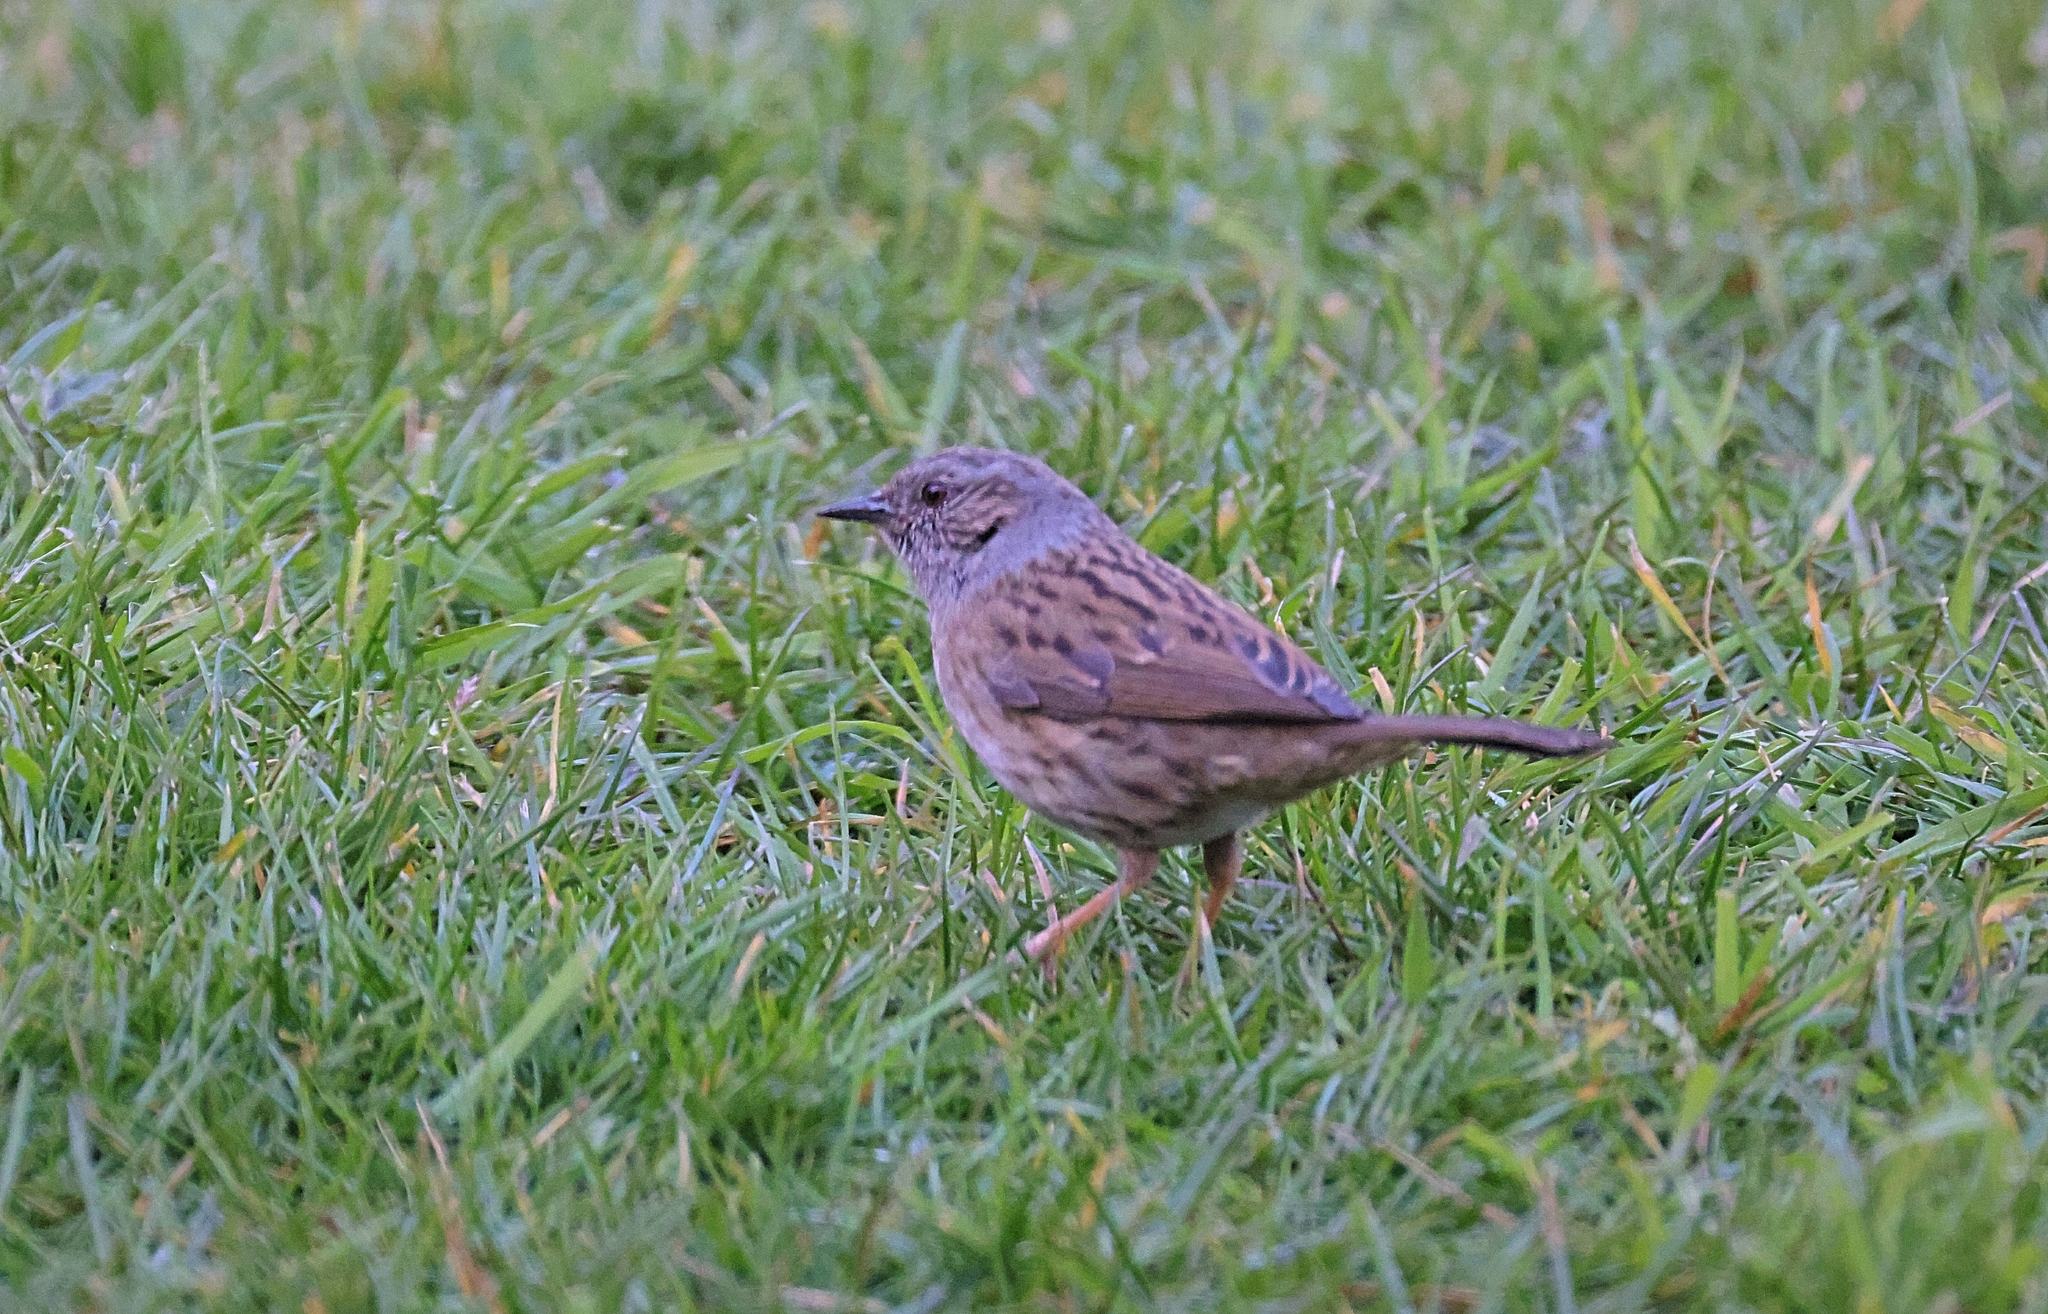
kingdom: Animalia
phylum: Chordata
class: Aves
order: Passeriformes
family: Prunellidae
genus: Prunella
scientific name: Prunella modularis
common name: Dunnock
